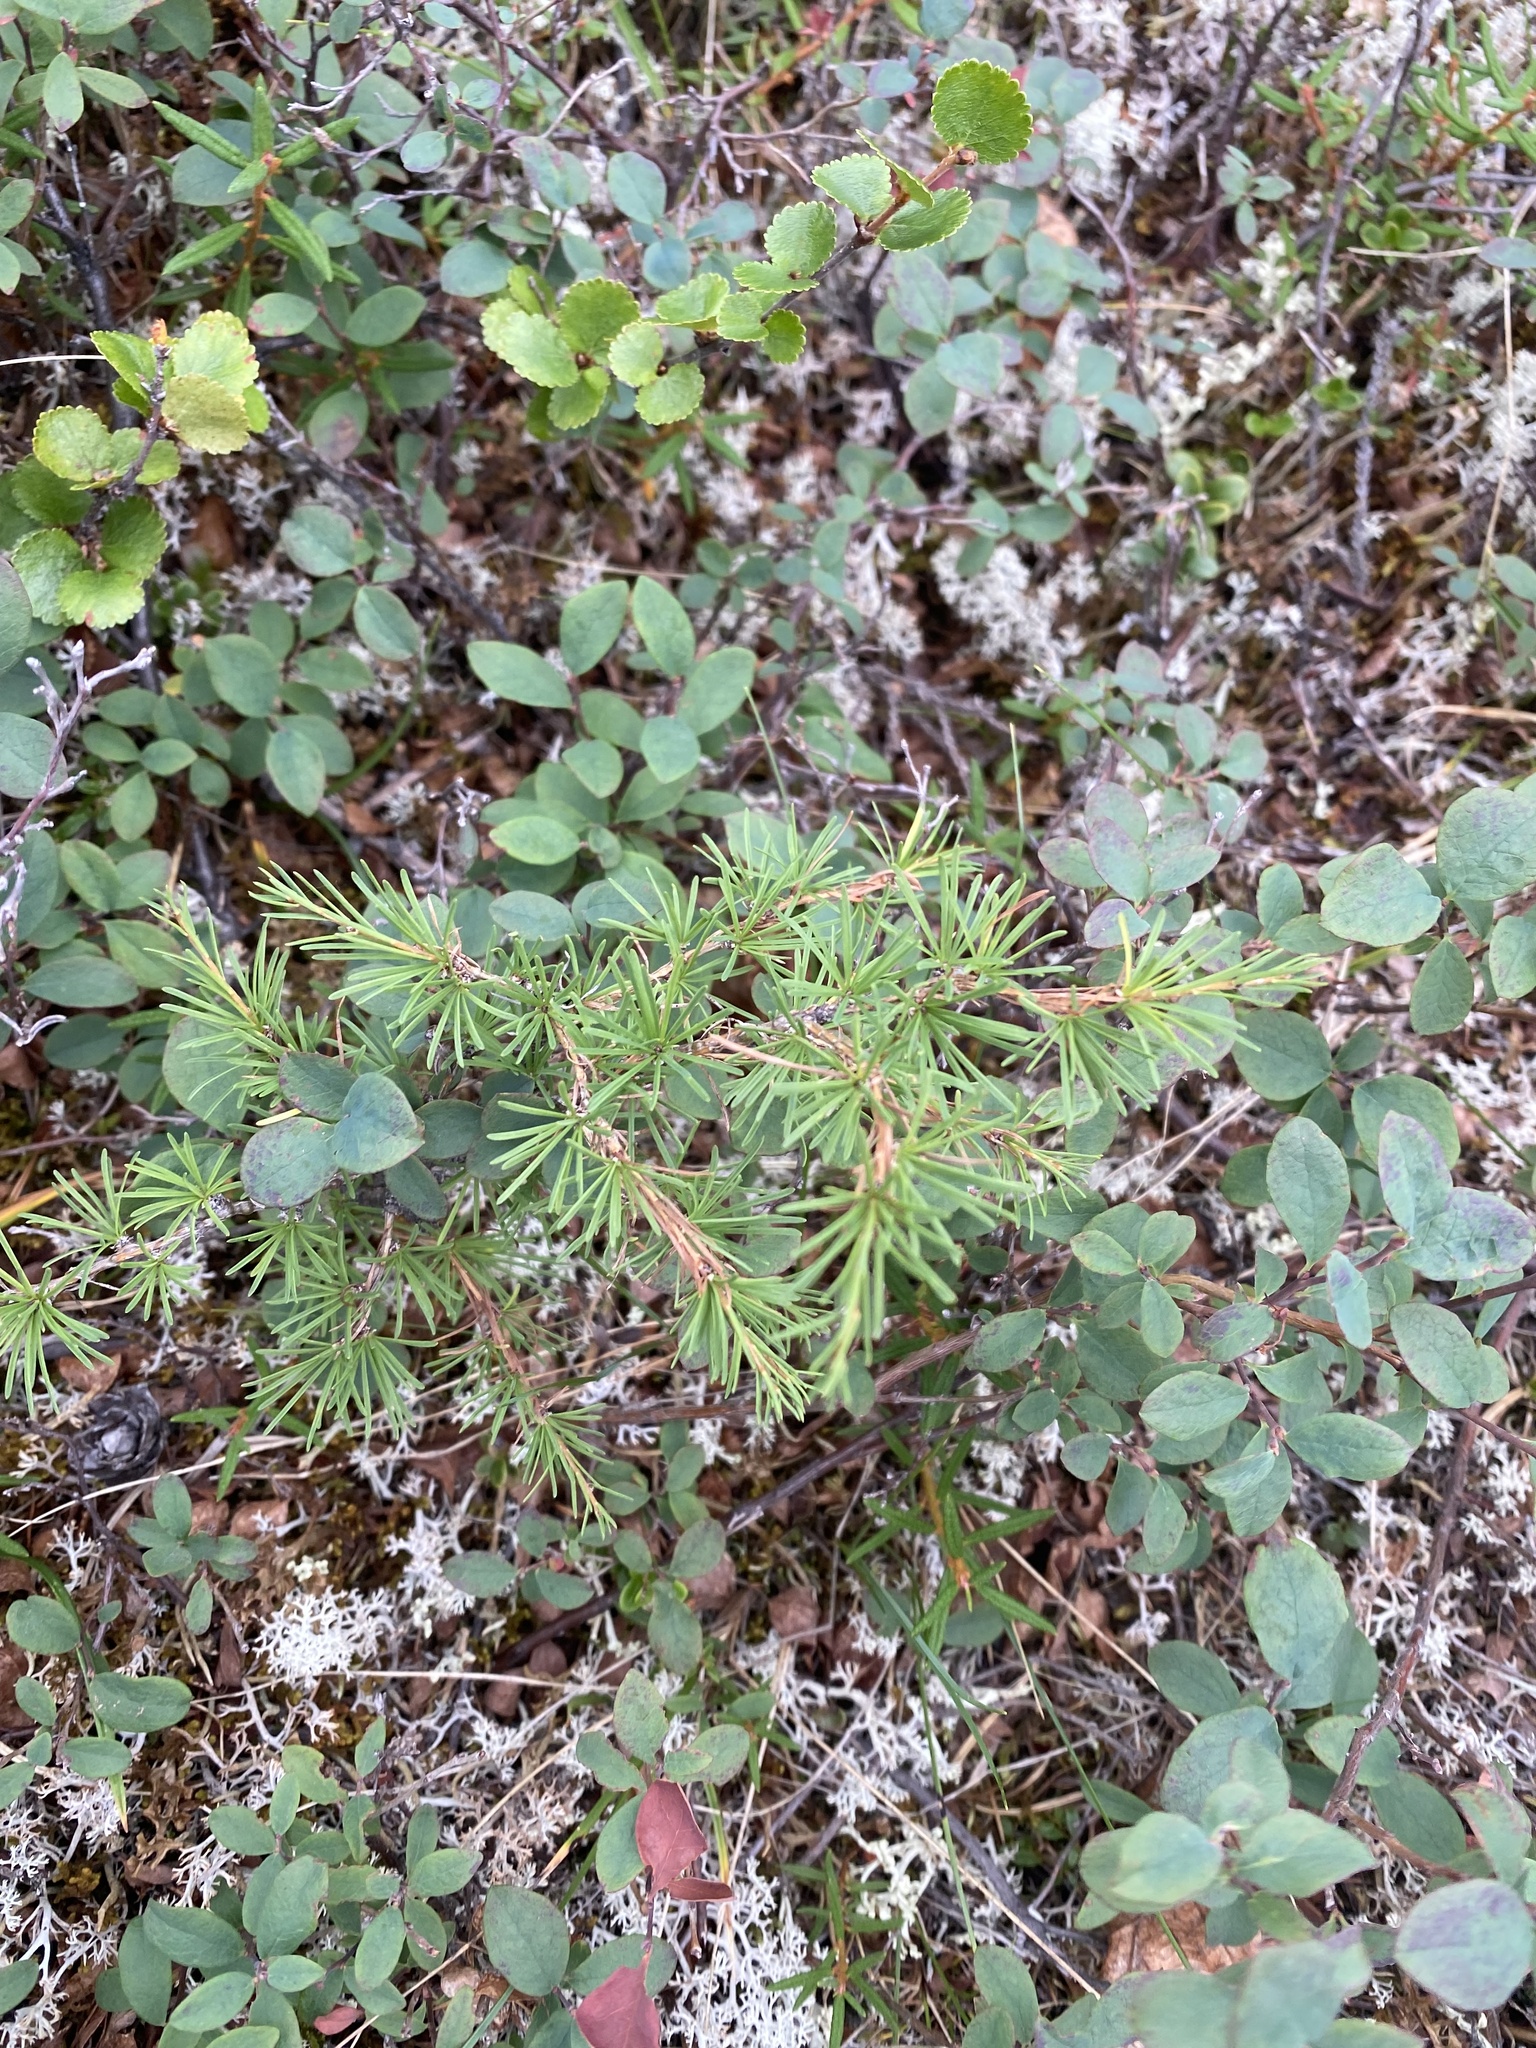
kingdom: Plantae
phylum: Tracheophyta
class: Magnoliopsida
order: Fagales
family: Betulaceae
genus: Betula
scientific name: Betula nana
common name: Arctic dwarf birch
